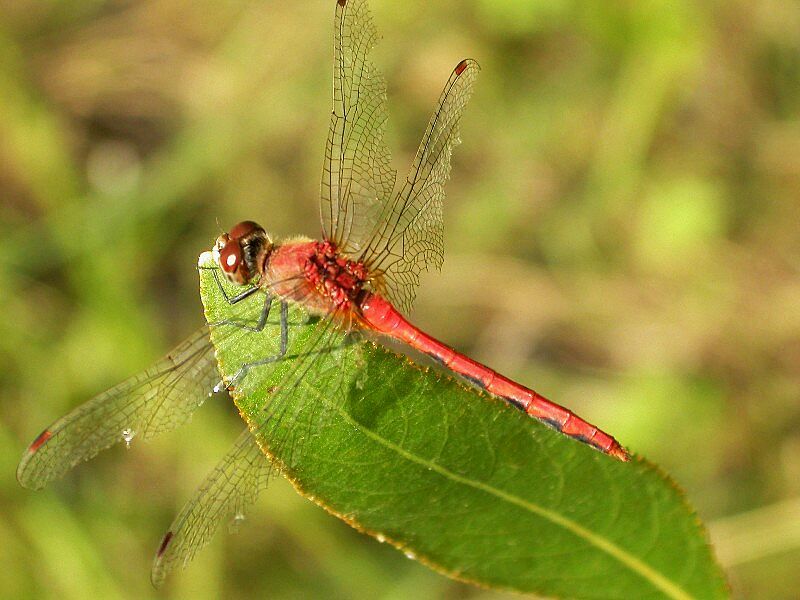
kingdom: Animalia
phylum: Arthropoda
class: Insecta
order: Odonata
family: Libellulidae
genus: Sympetrum
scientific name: Sympetrum obtrusum
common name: White-faced meadowhawk
